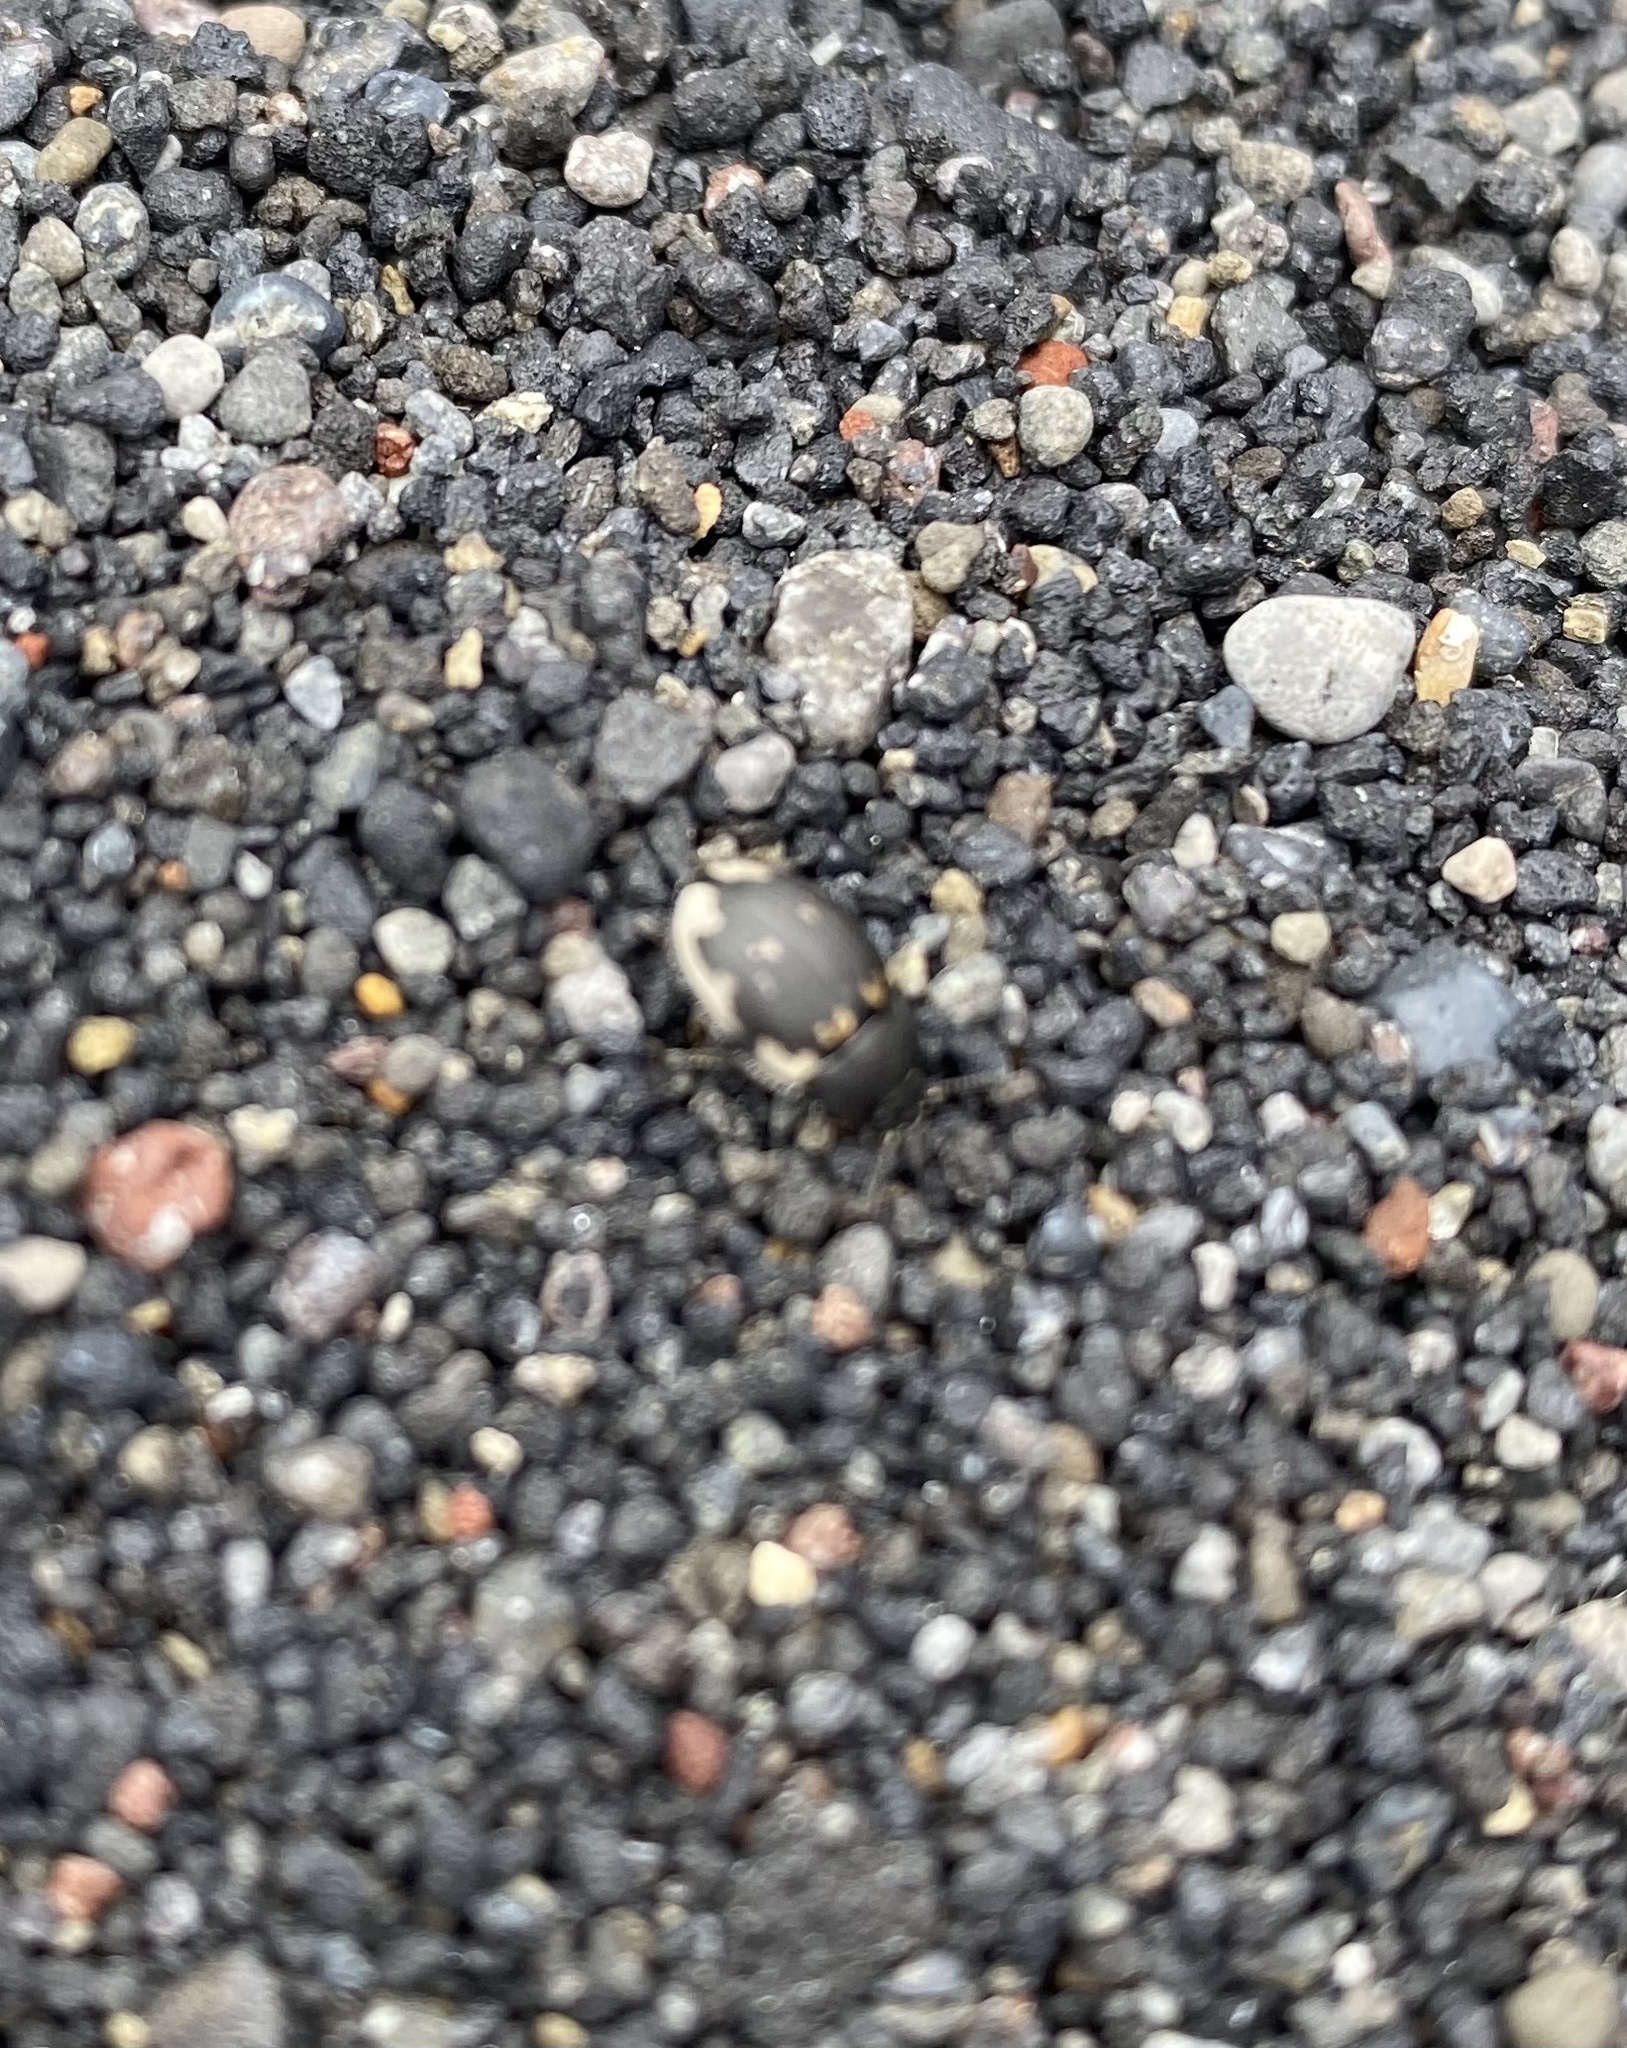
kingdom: Animalia
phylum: Arthropoda
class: Insecta
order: Coleoptera
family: Tenebrionidae
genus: Emypsara
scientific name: Emypsara
